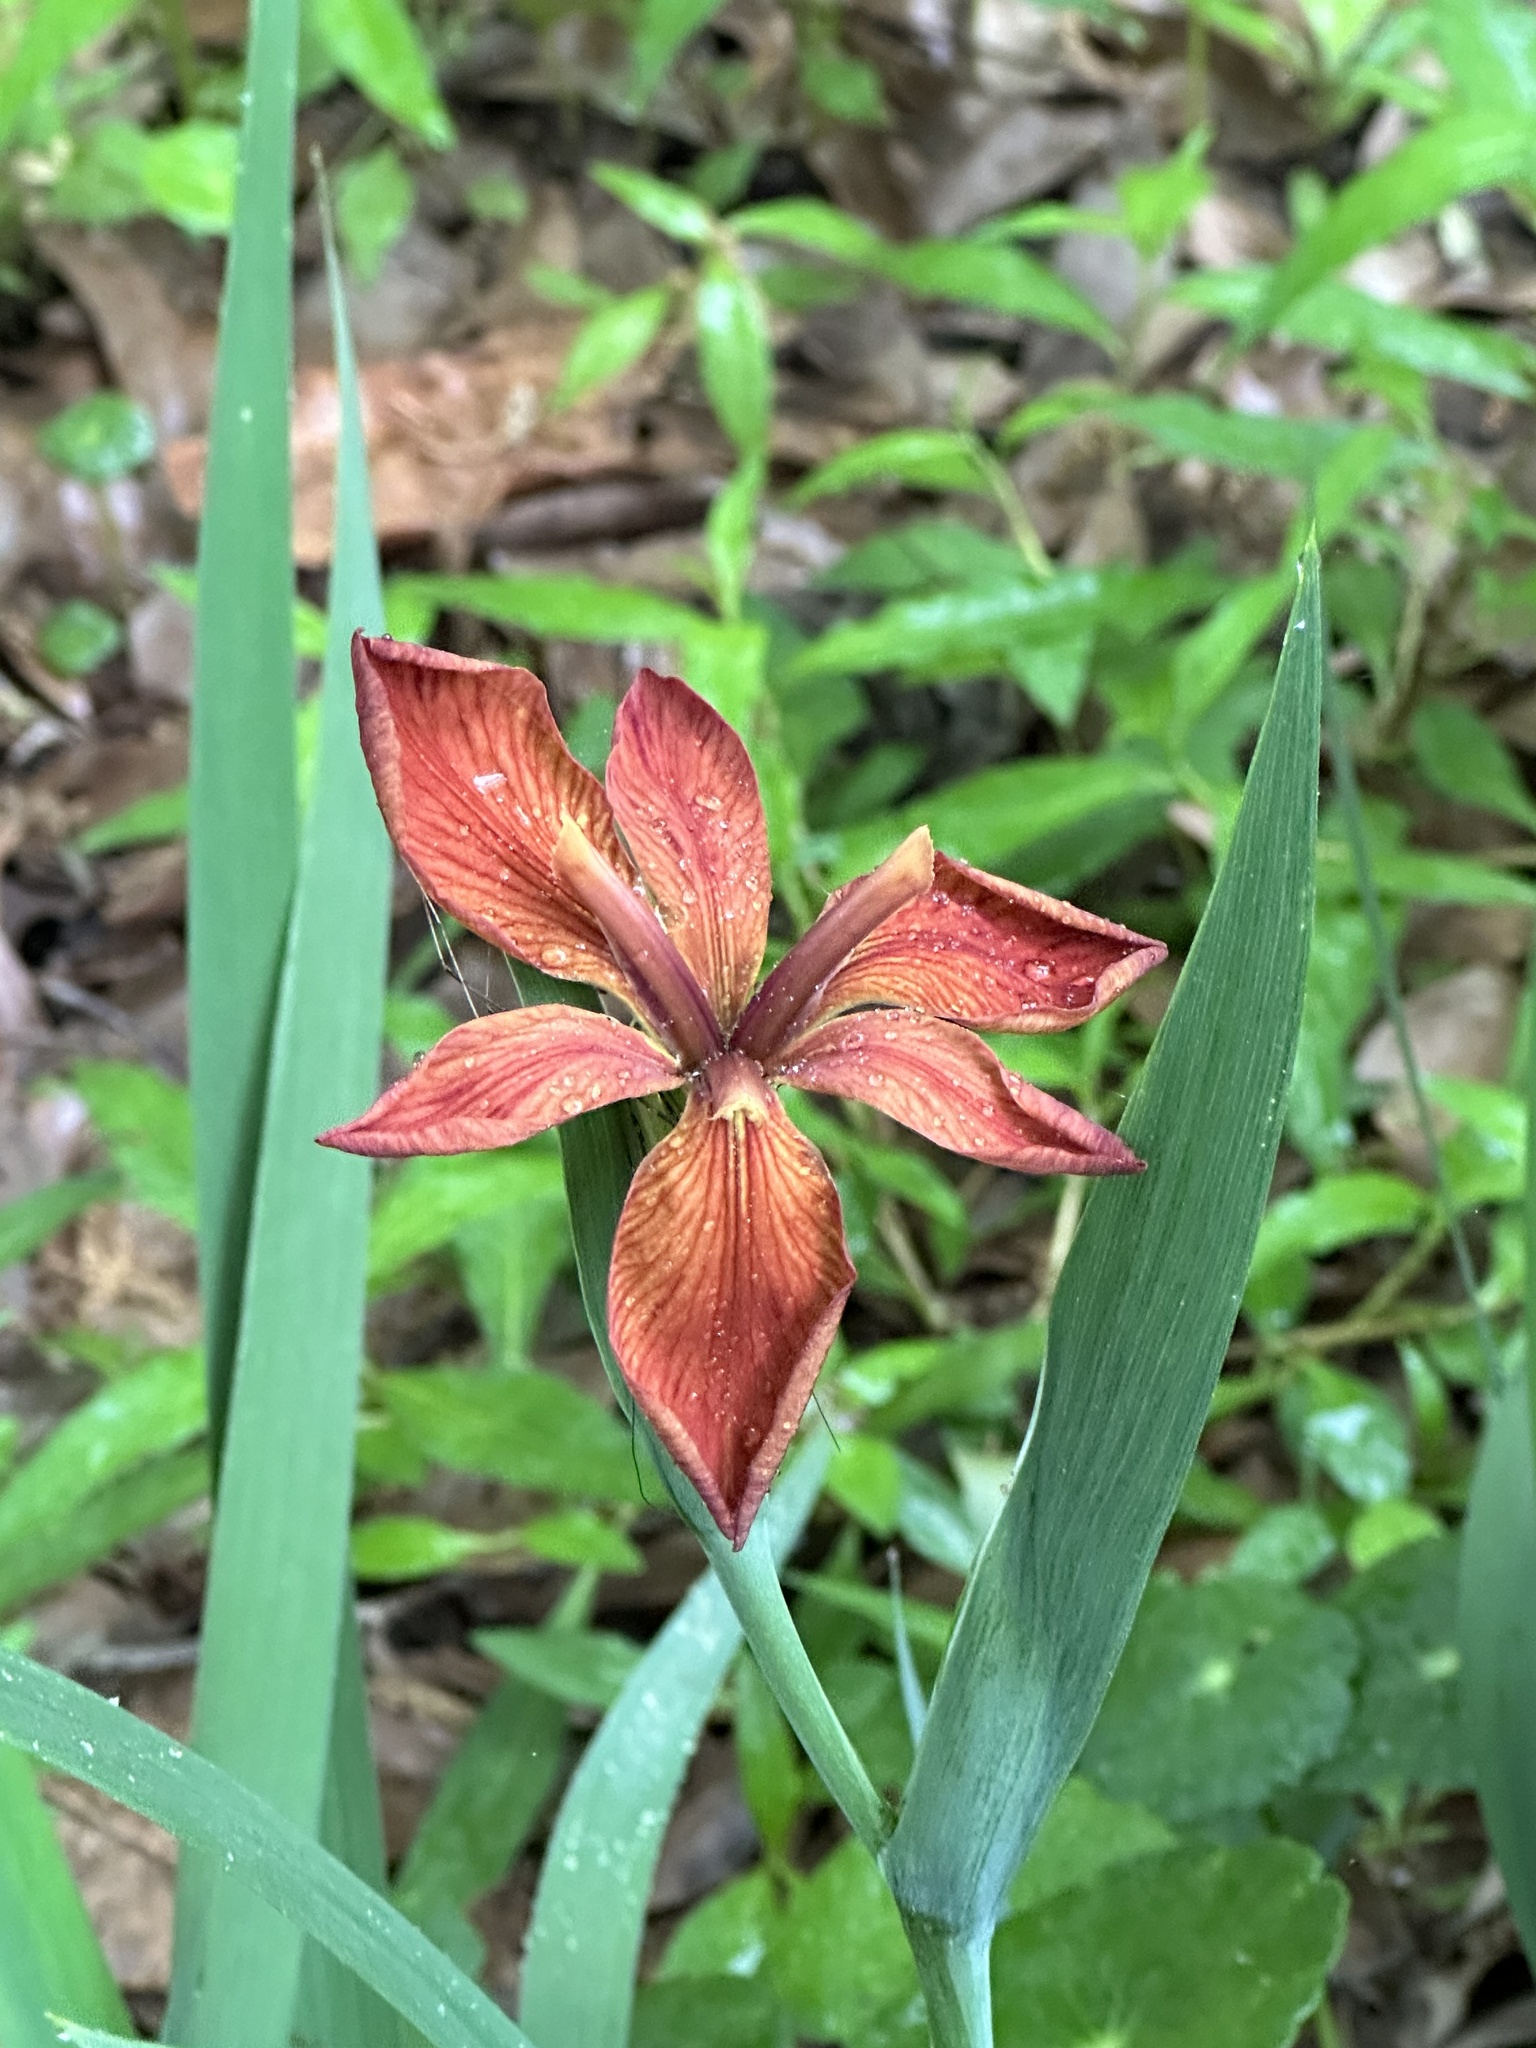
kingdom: Plantae
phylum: Tracheophyta
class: Liliopsida
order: Asparagales
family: Iridaceae
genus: Iris
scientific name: Iris fulva
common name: Copper iris
